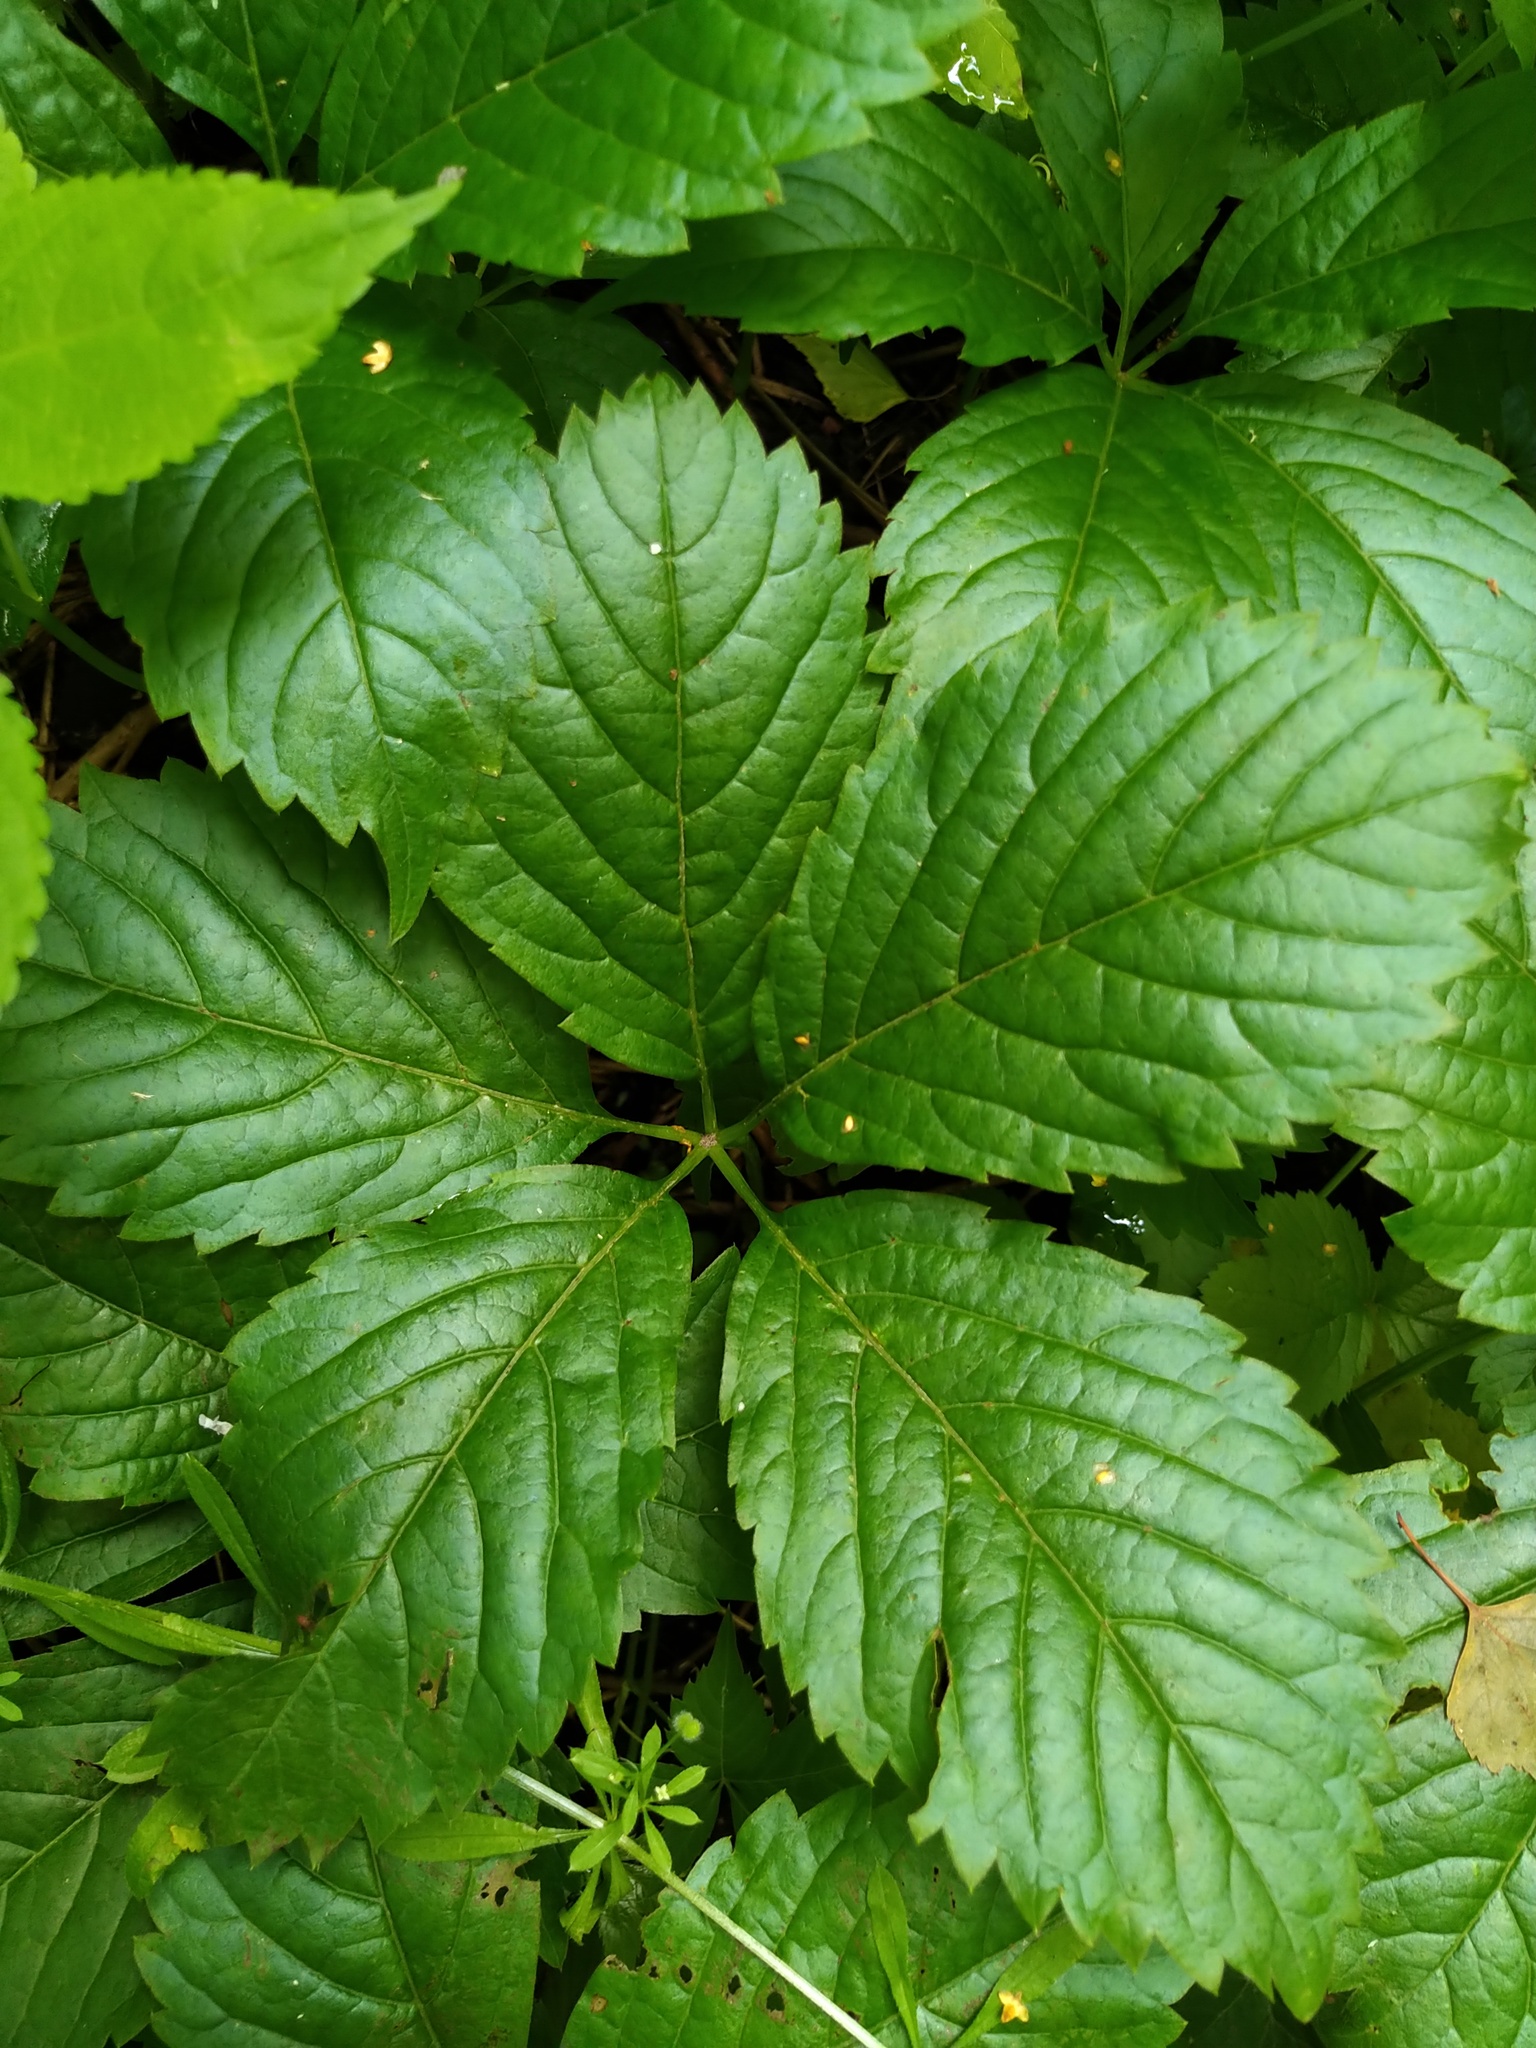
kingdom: Plantae
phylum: Tracheophyta
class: Magnoliopsida
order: Vitales
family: Vitaceae
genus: Parthenocissus
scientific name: Parthenocissus inserta
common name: False virginia-creeper
